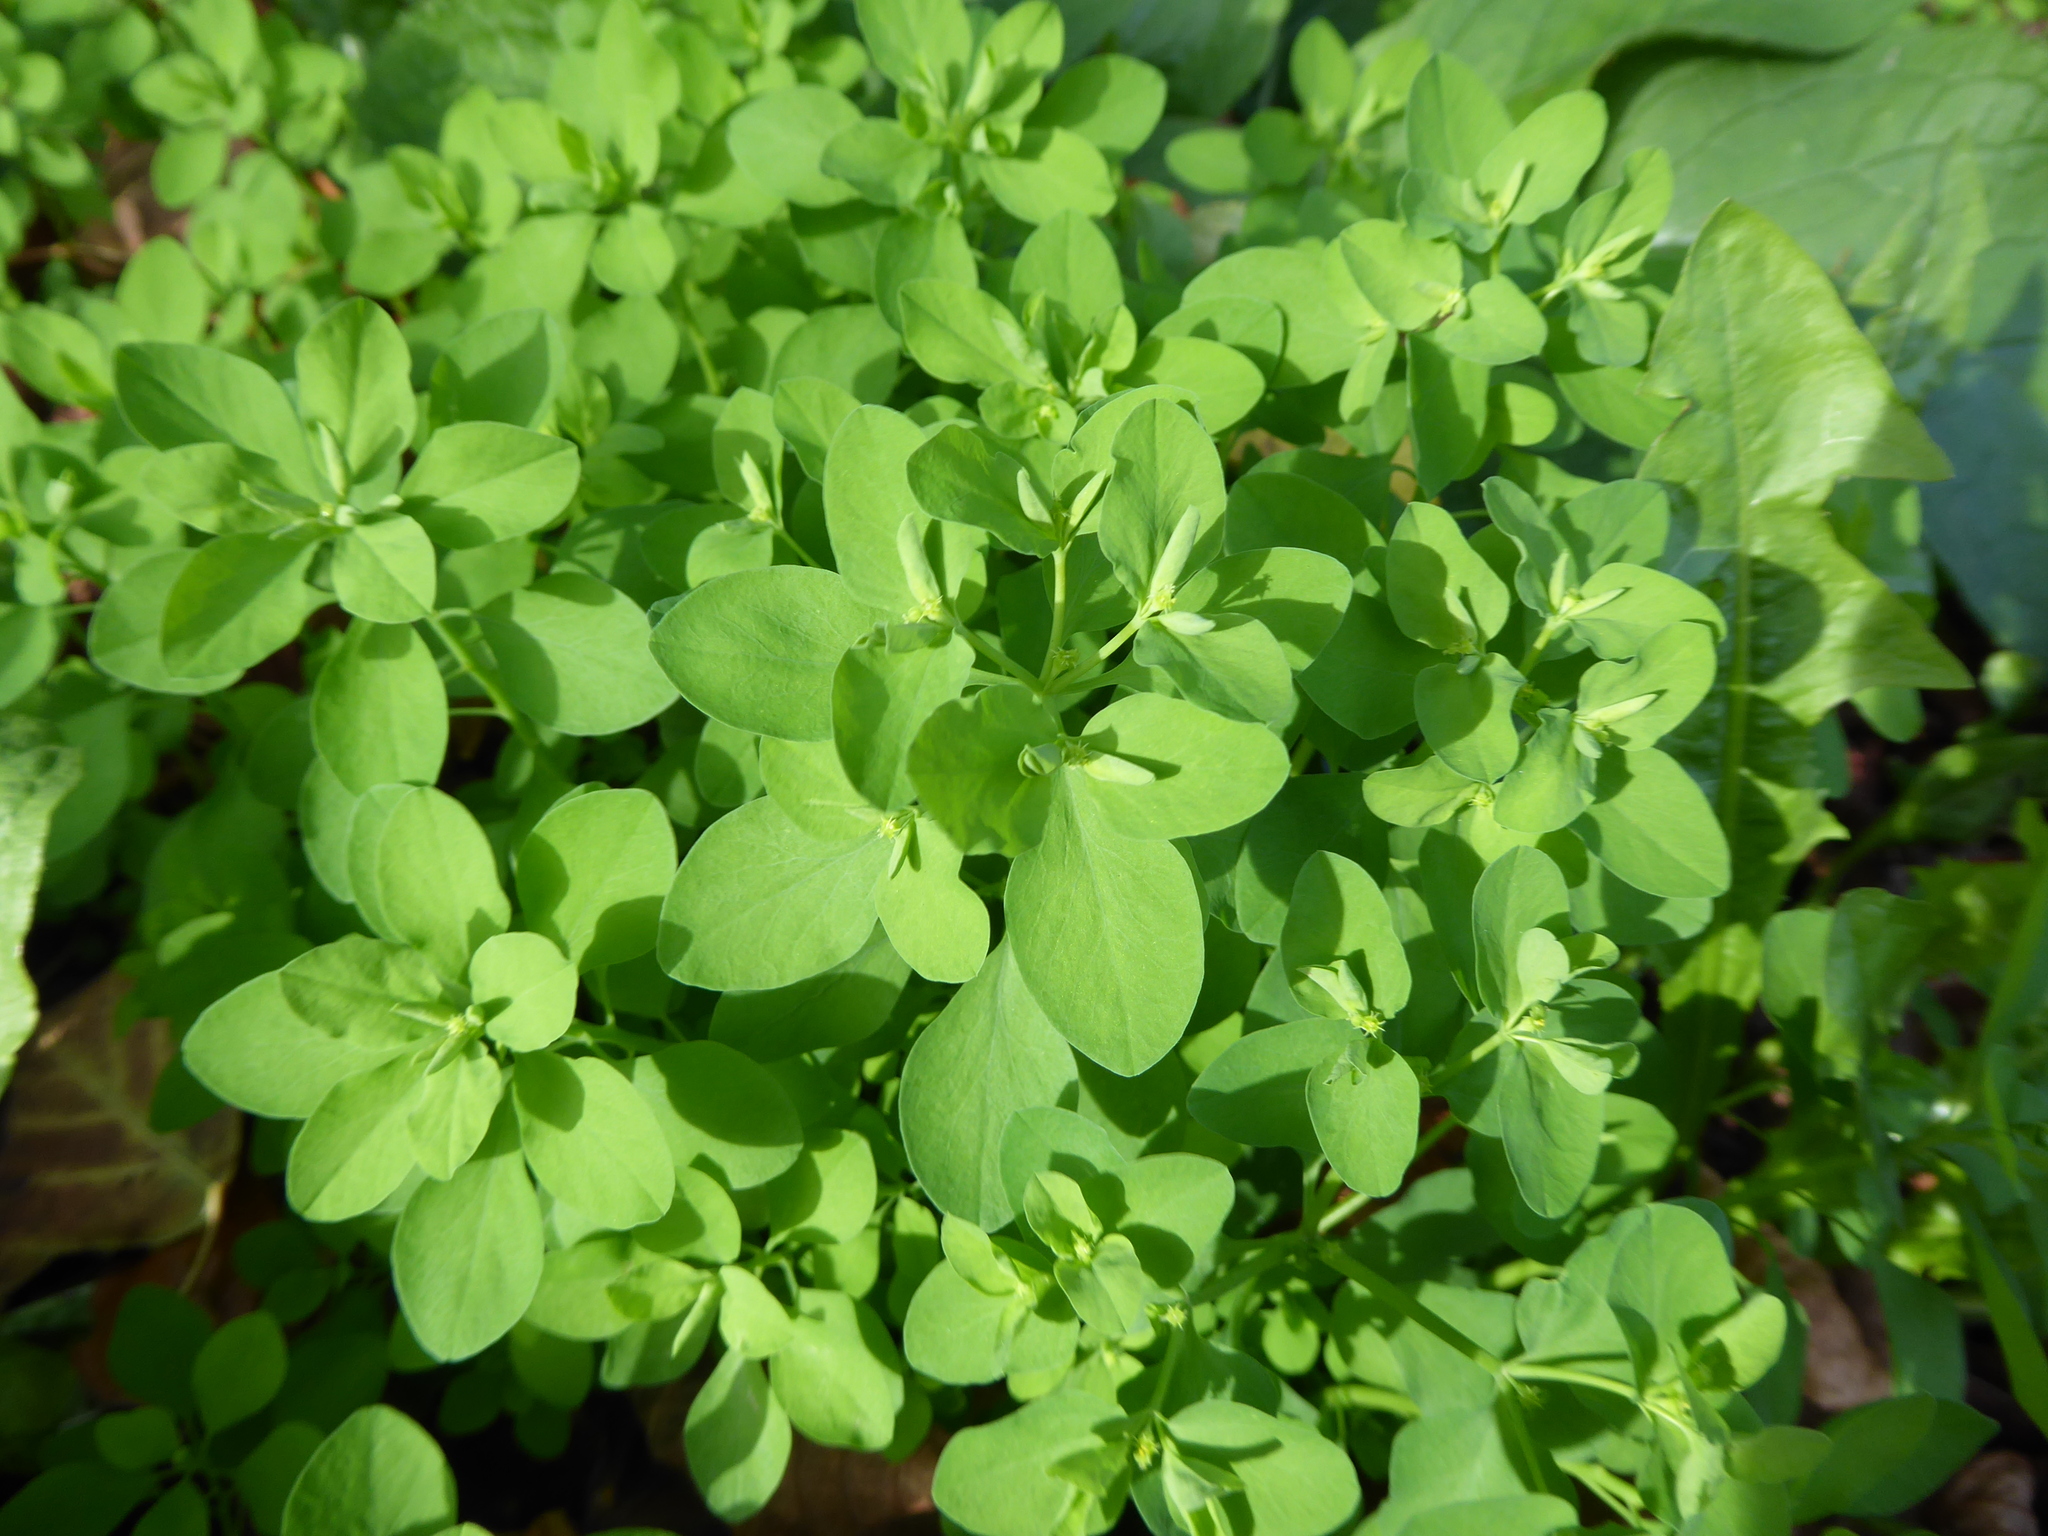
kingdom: Plantae
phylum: Tracheophyta
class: Magnoliopsida
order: Malpighiales
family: Euphorbiaceae
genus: Euphorbia
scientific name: Euphorbia peplus
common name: Petty spurge
